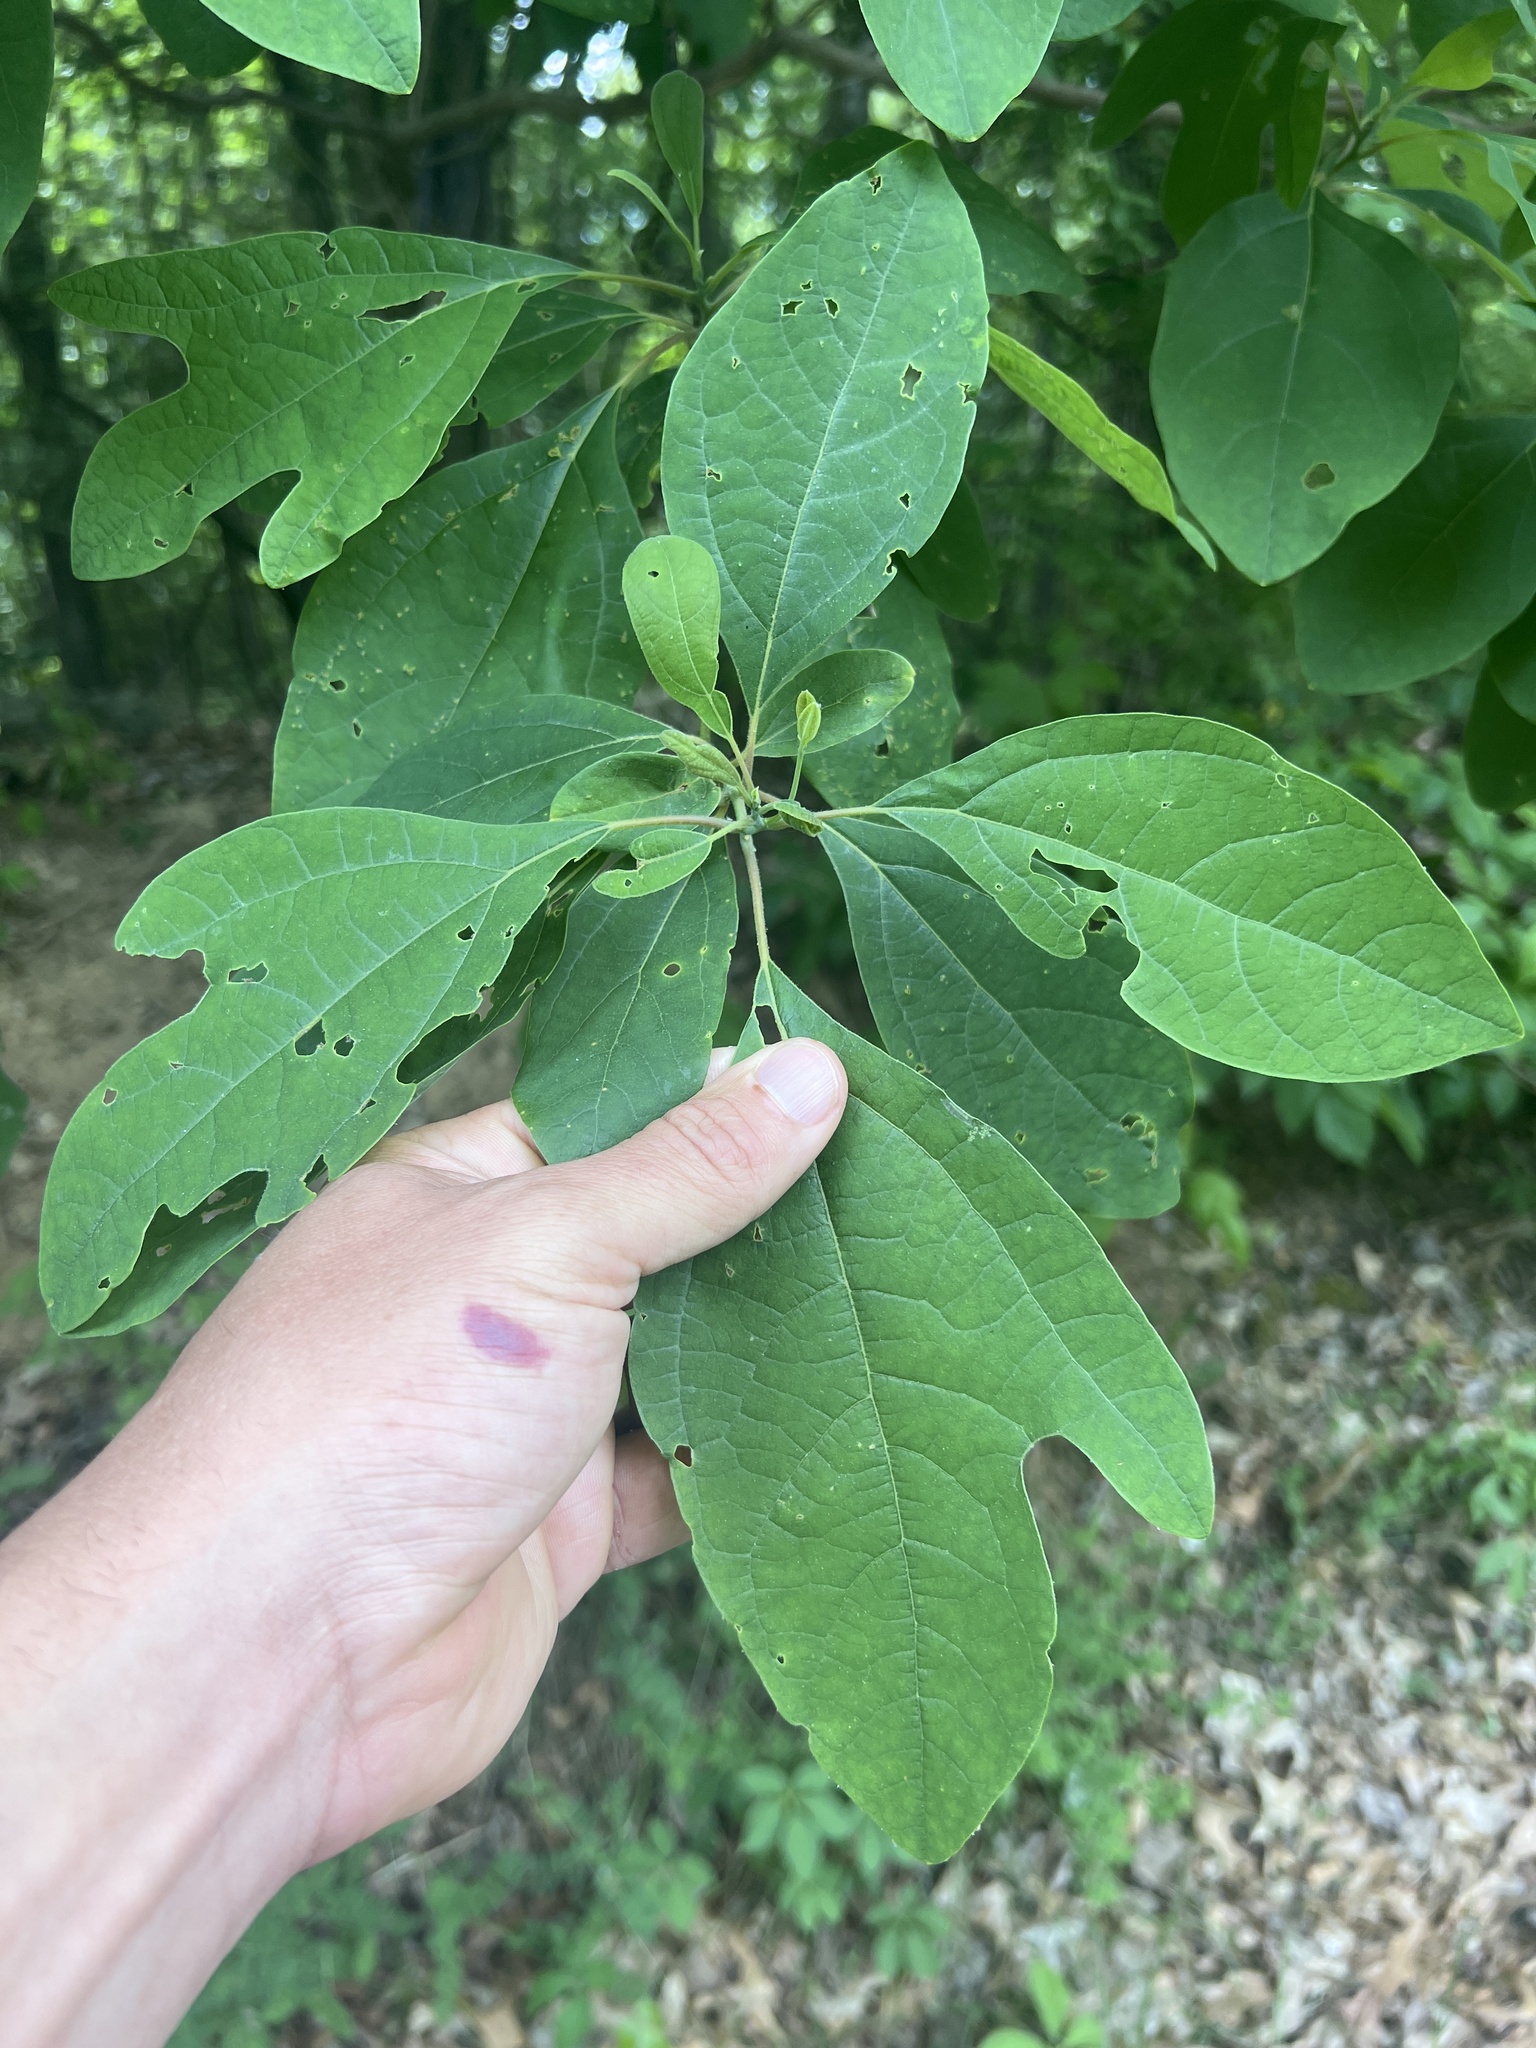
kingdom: Plantae
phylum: Tracheophyta
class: Magnoliopsida
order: Laurales
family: Lauraceae
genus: Sassafras
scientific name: Sassafras albidum
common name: Sassafras
